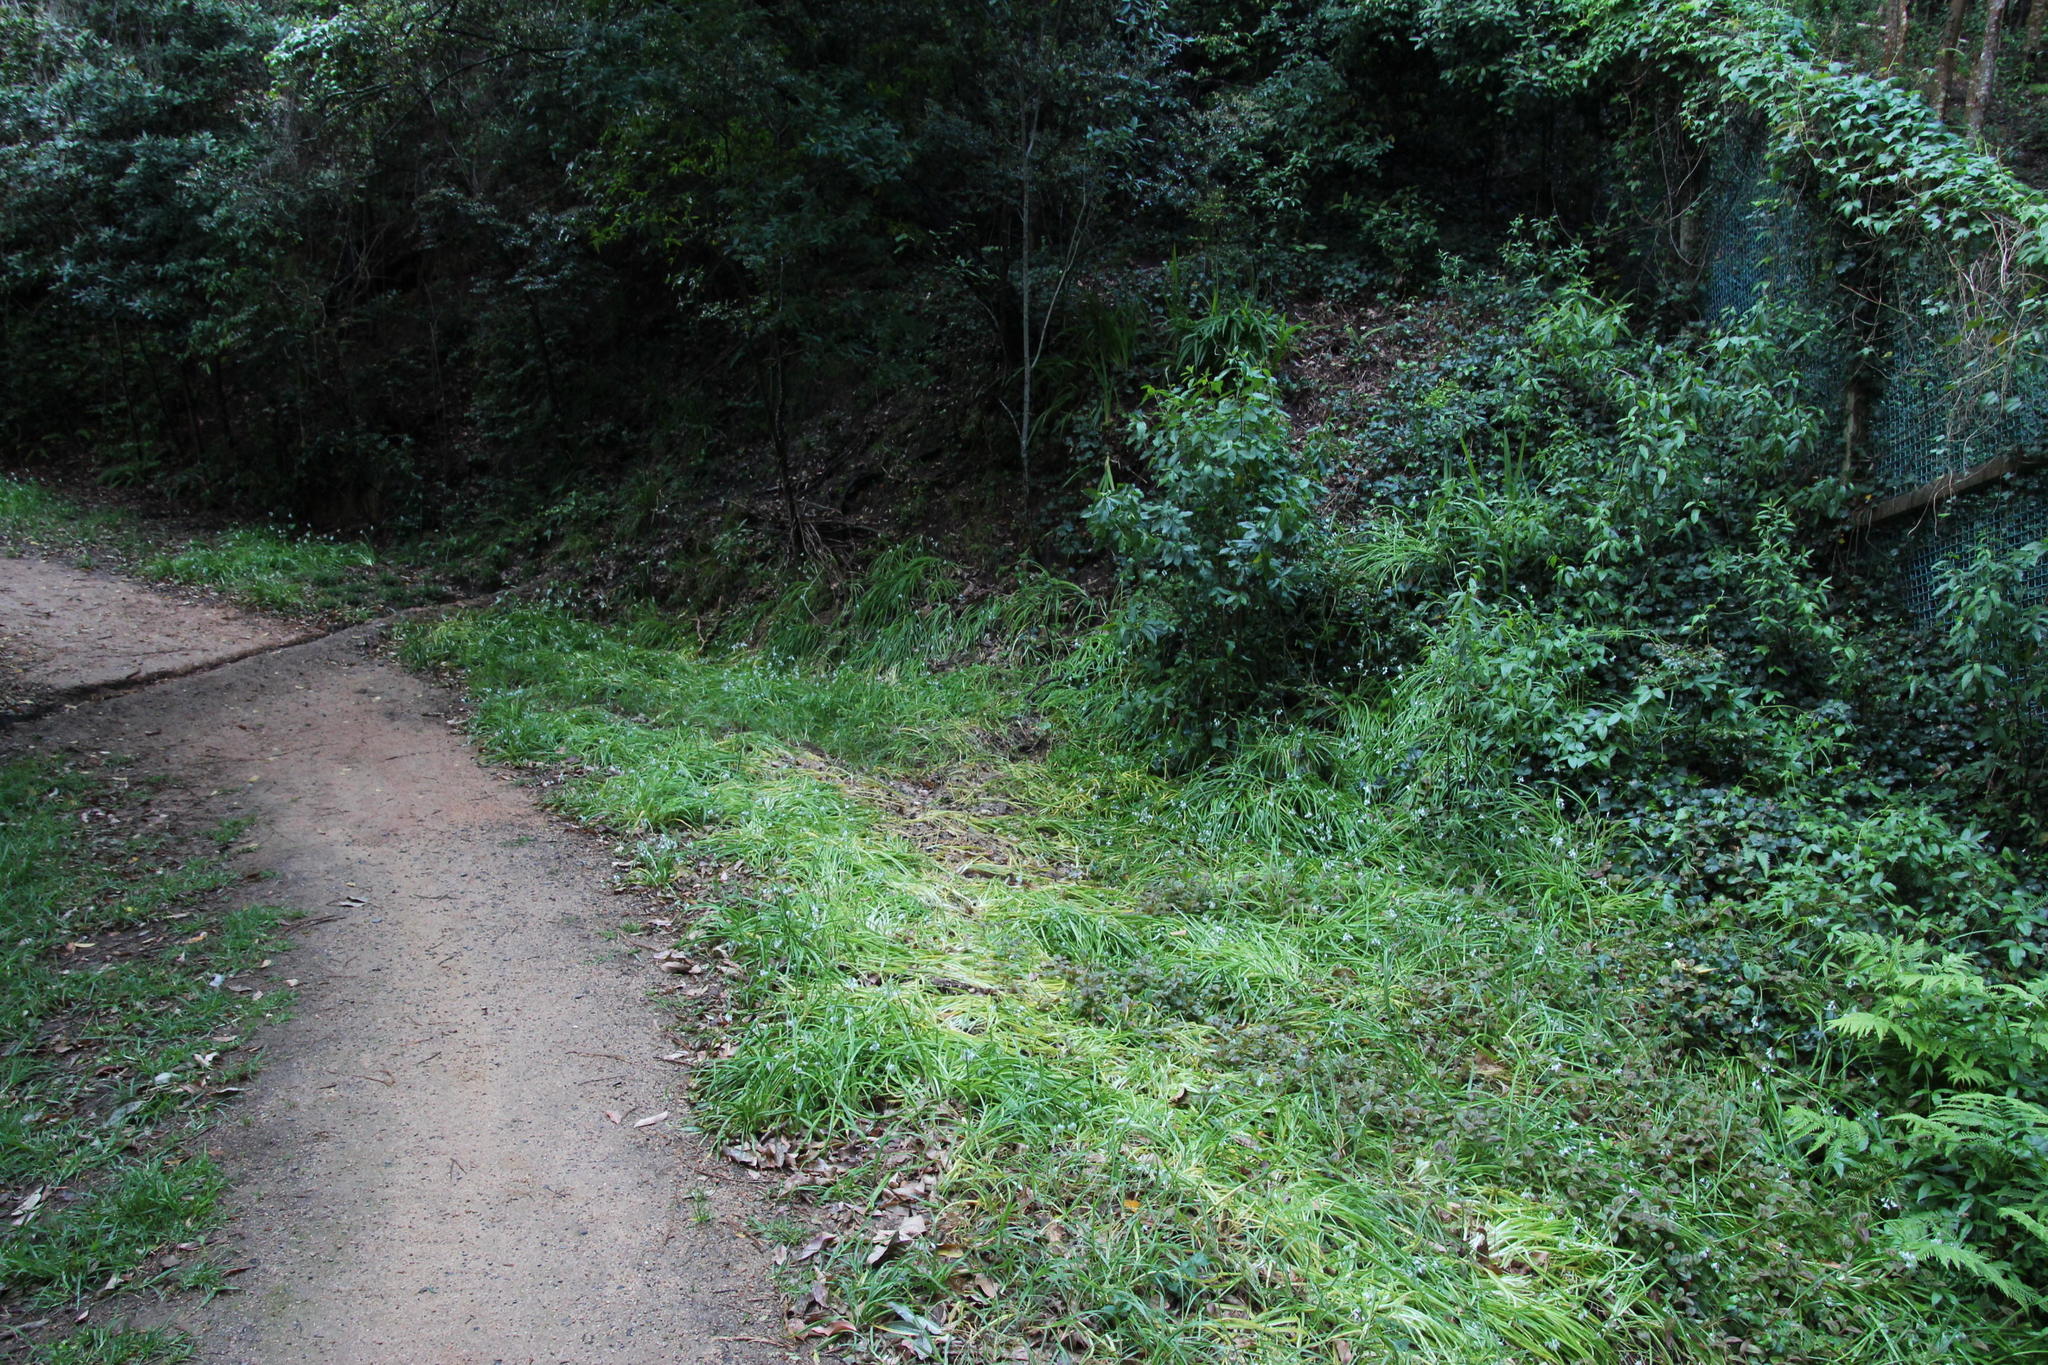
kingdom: Plantae
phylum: Tracheophyta
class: Liliopsida
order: Asparagales
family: Amaryllidaceae
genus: Allium
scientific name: Allium triquetrum
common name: Three-cornered garlic
